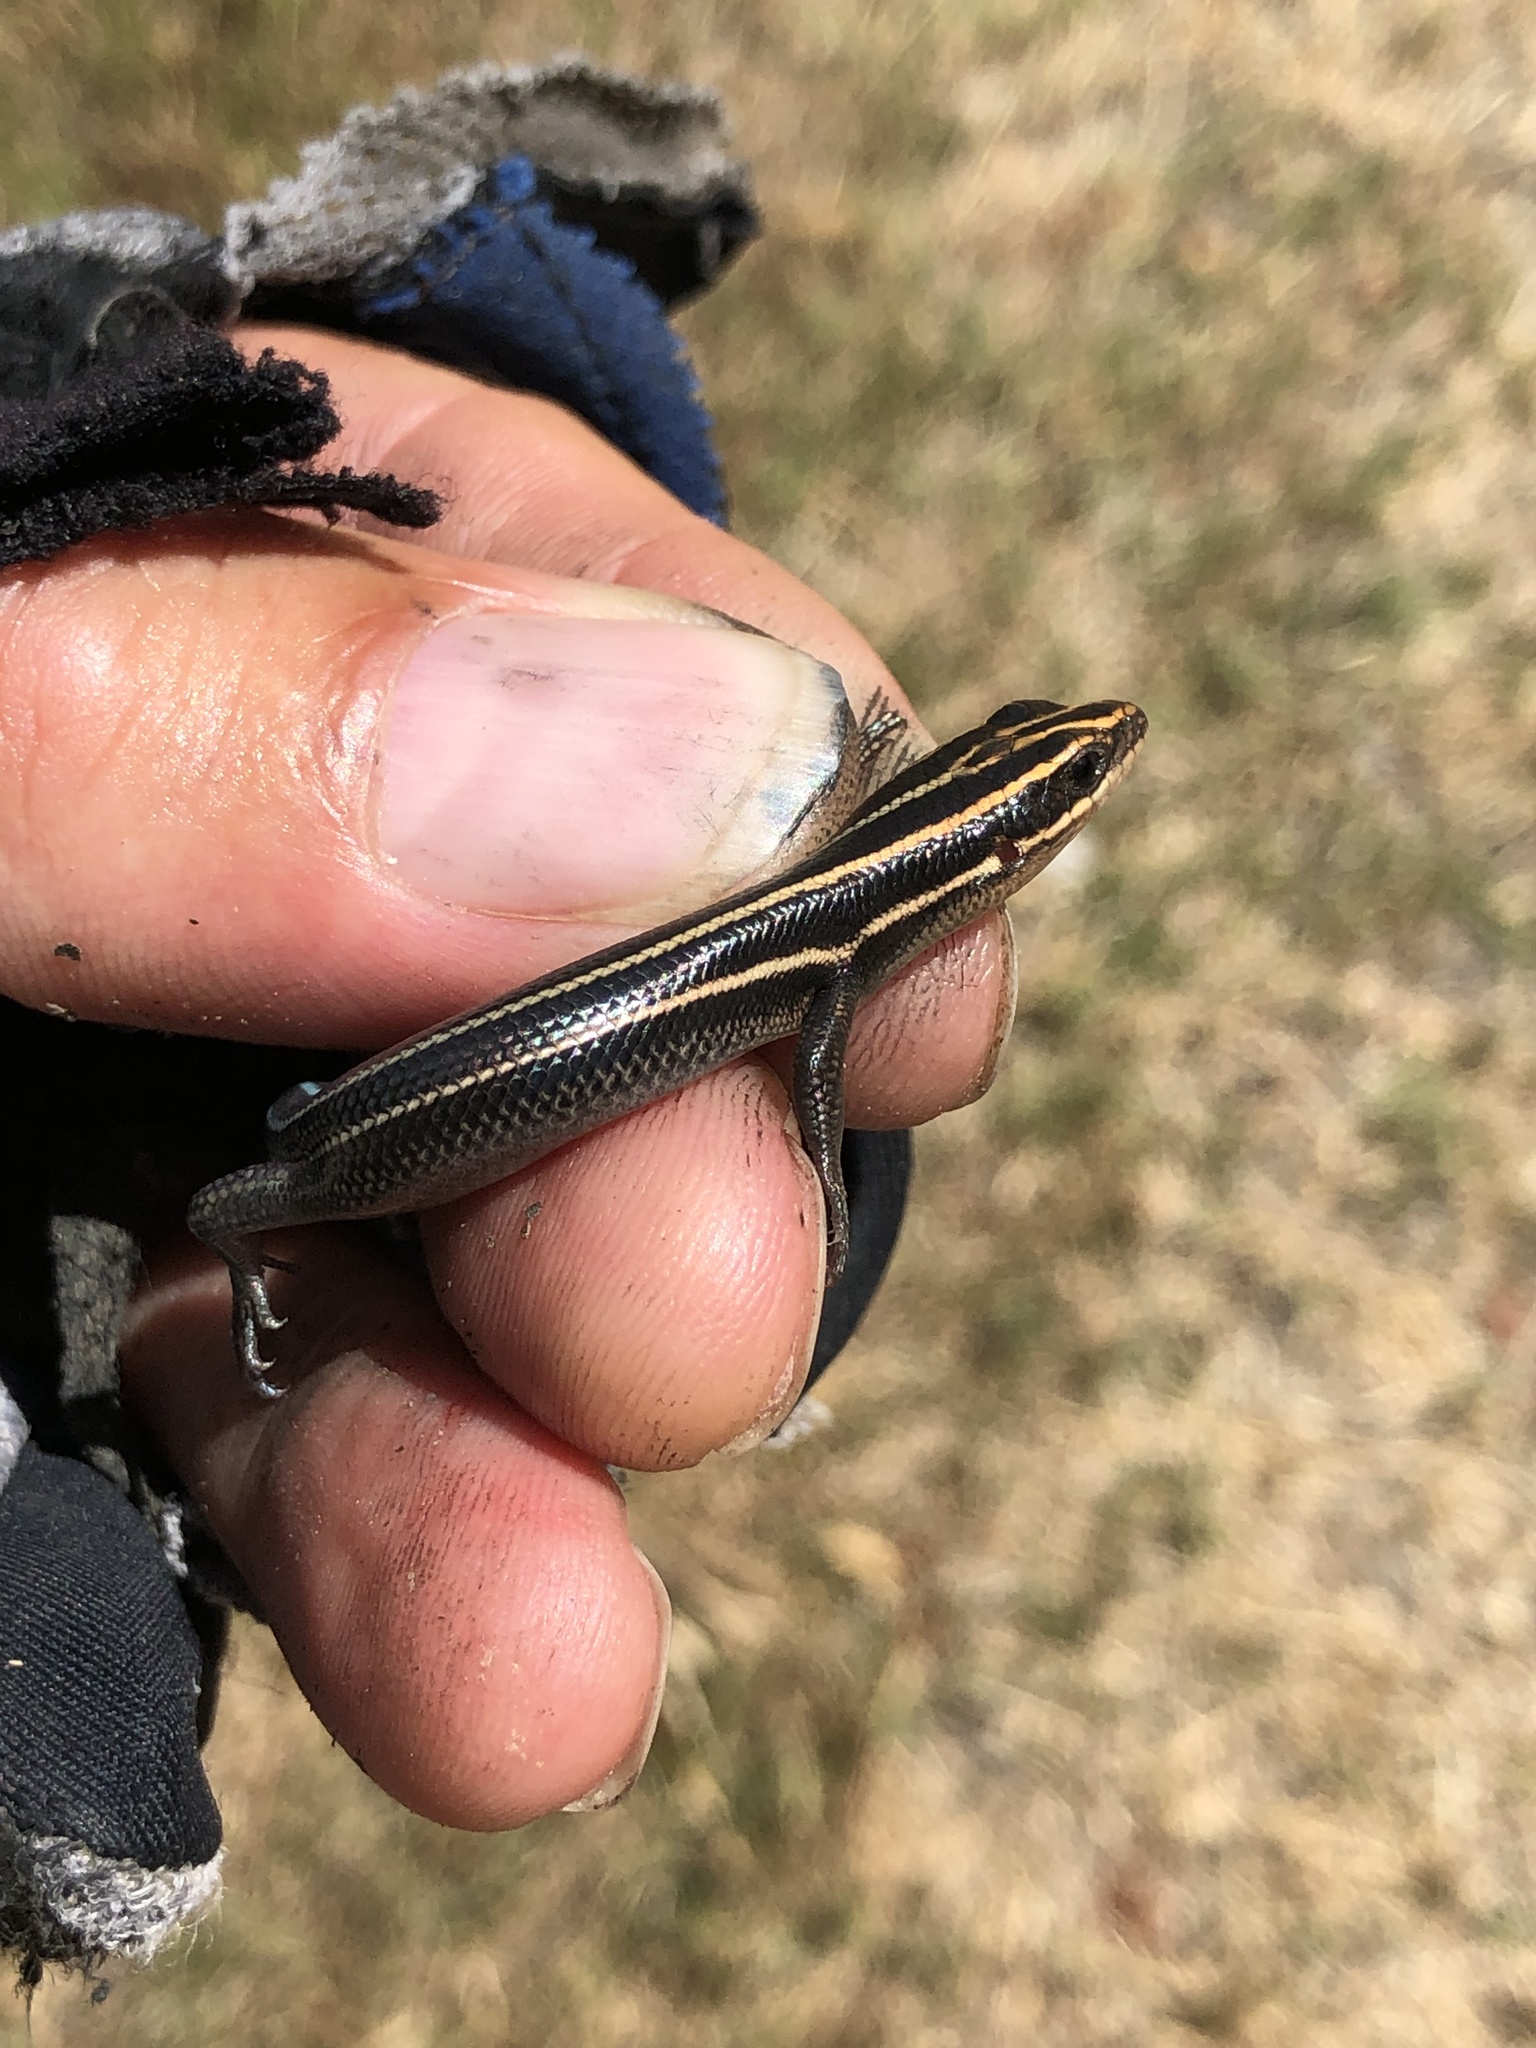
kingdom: Animalia
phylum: Chordata
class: Squamata
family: Scincidae
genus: Plestiodon
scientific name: Plestiodon fasciatus
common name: Five-lined skink
